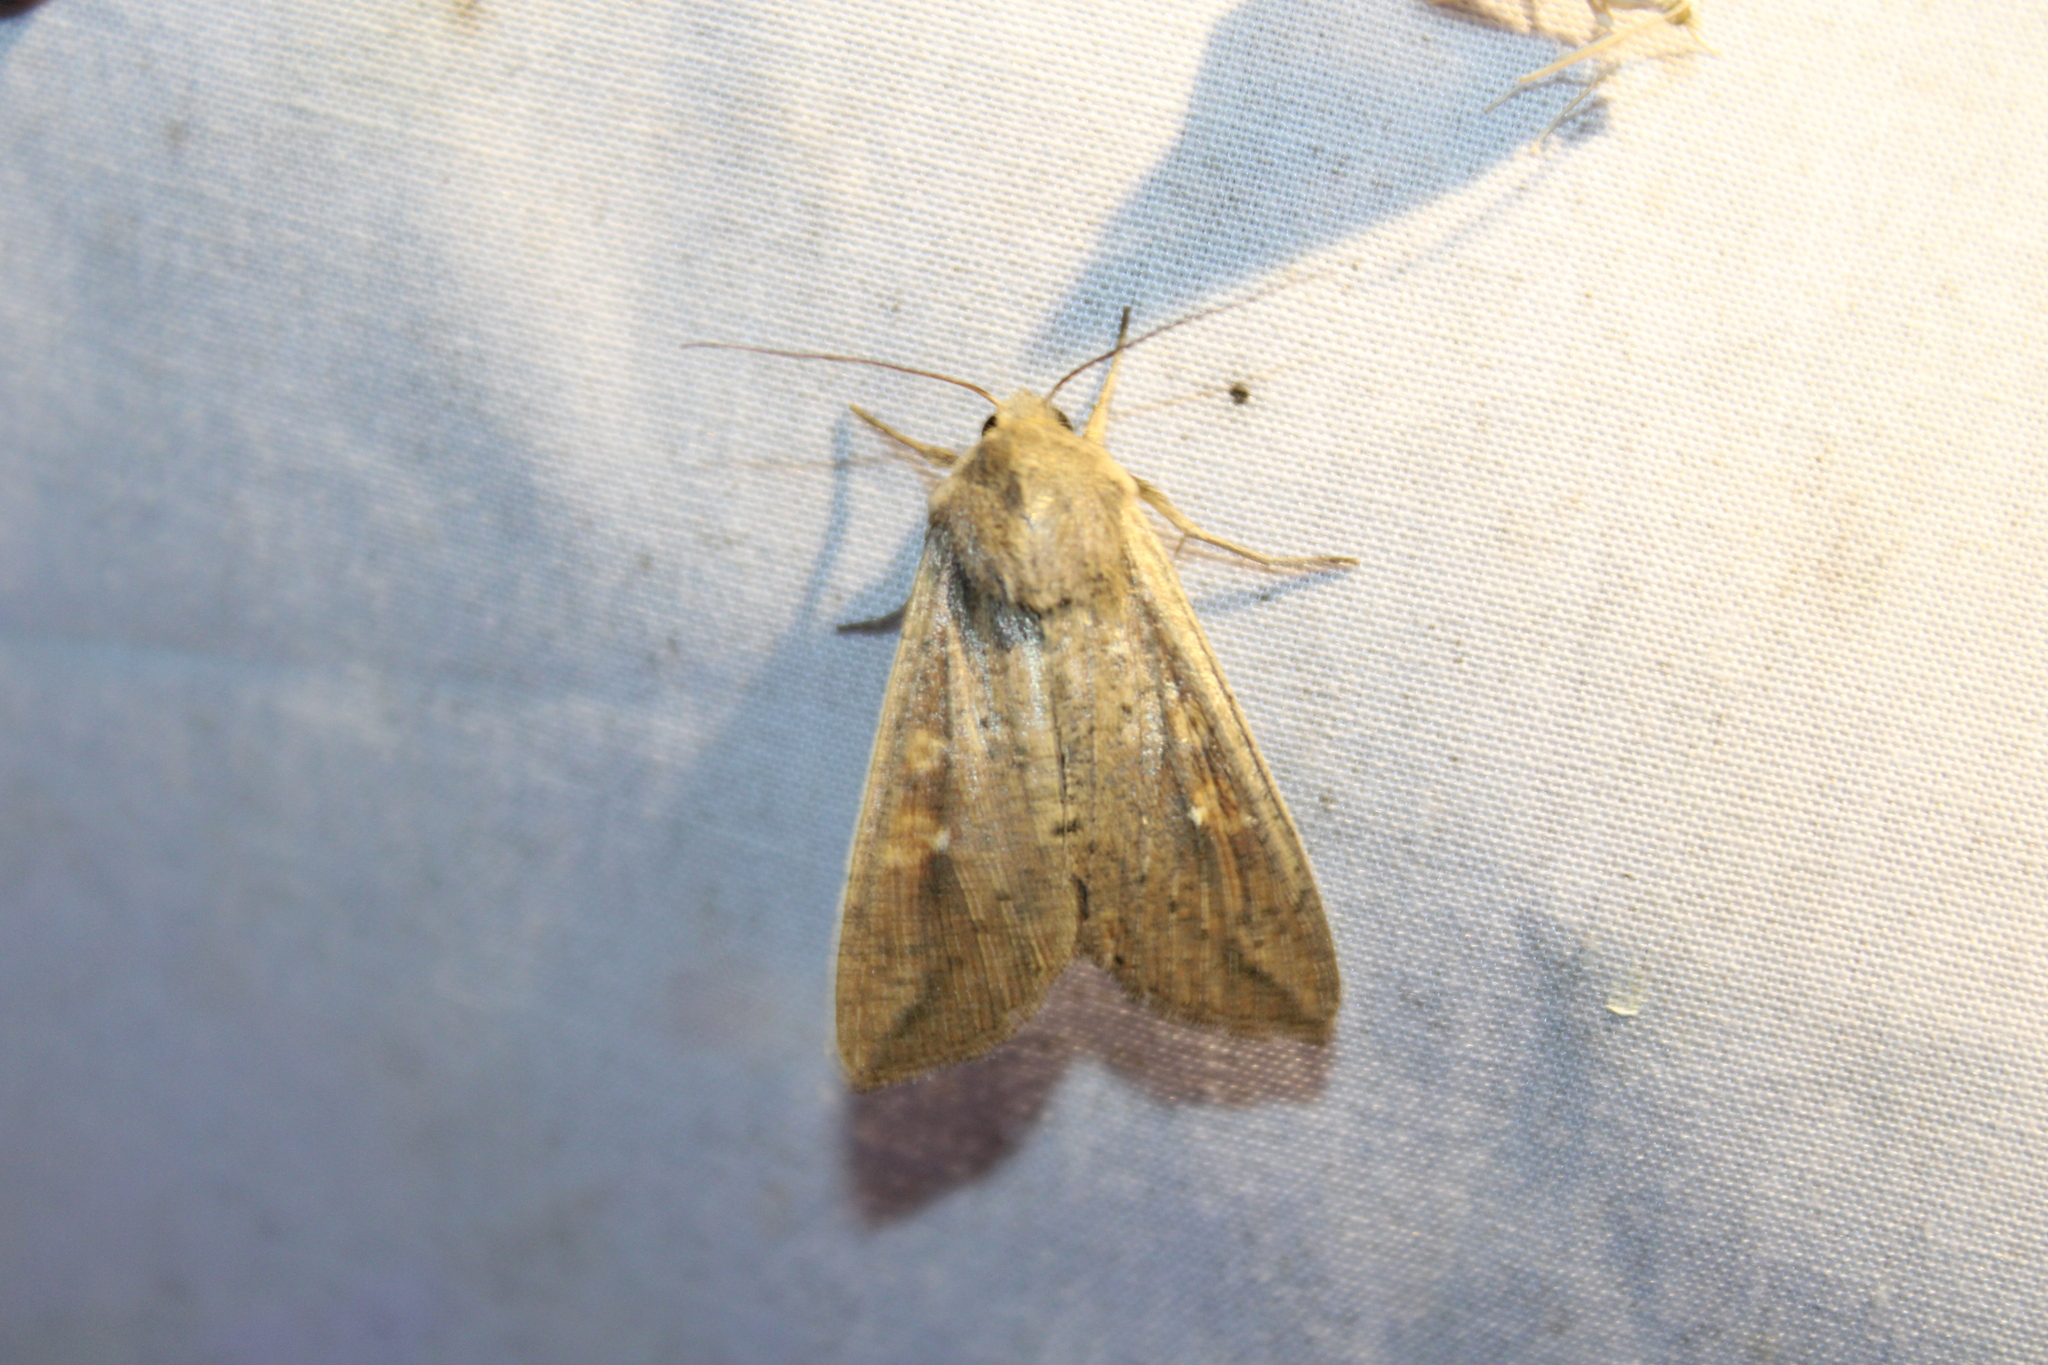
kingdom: Animalia
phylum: Arthropoda
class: Insecta
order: Lepidoptera
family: Noctuidae
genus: Mythimna
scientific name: Mythimna unipuncta
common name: White-speck
